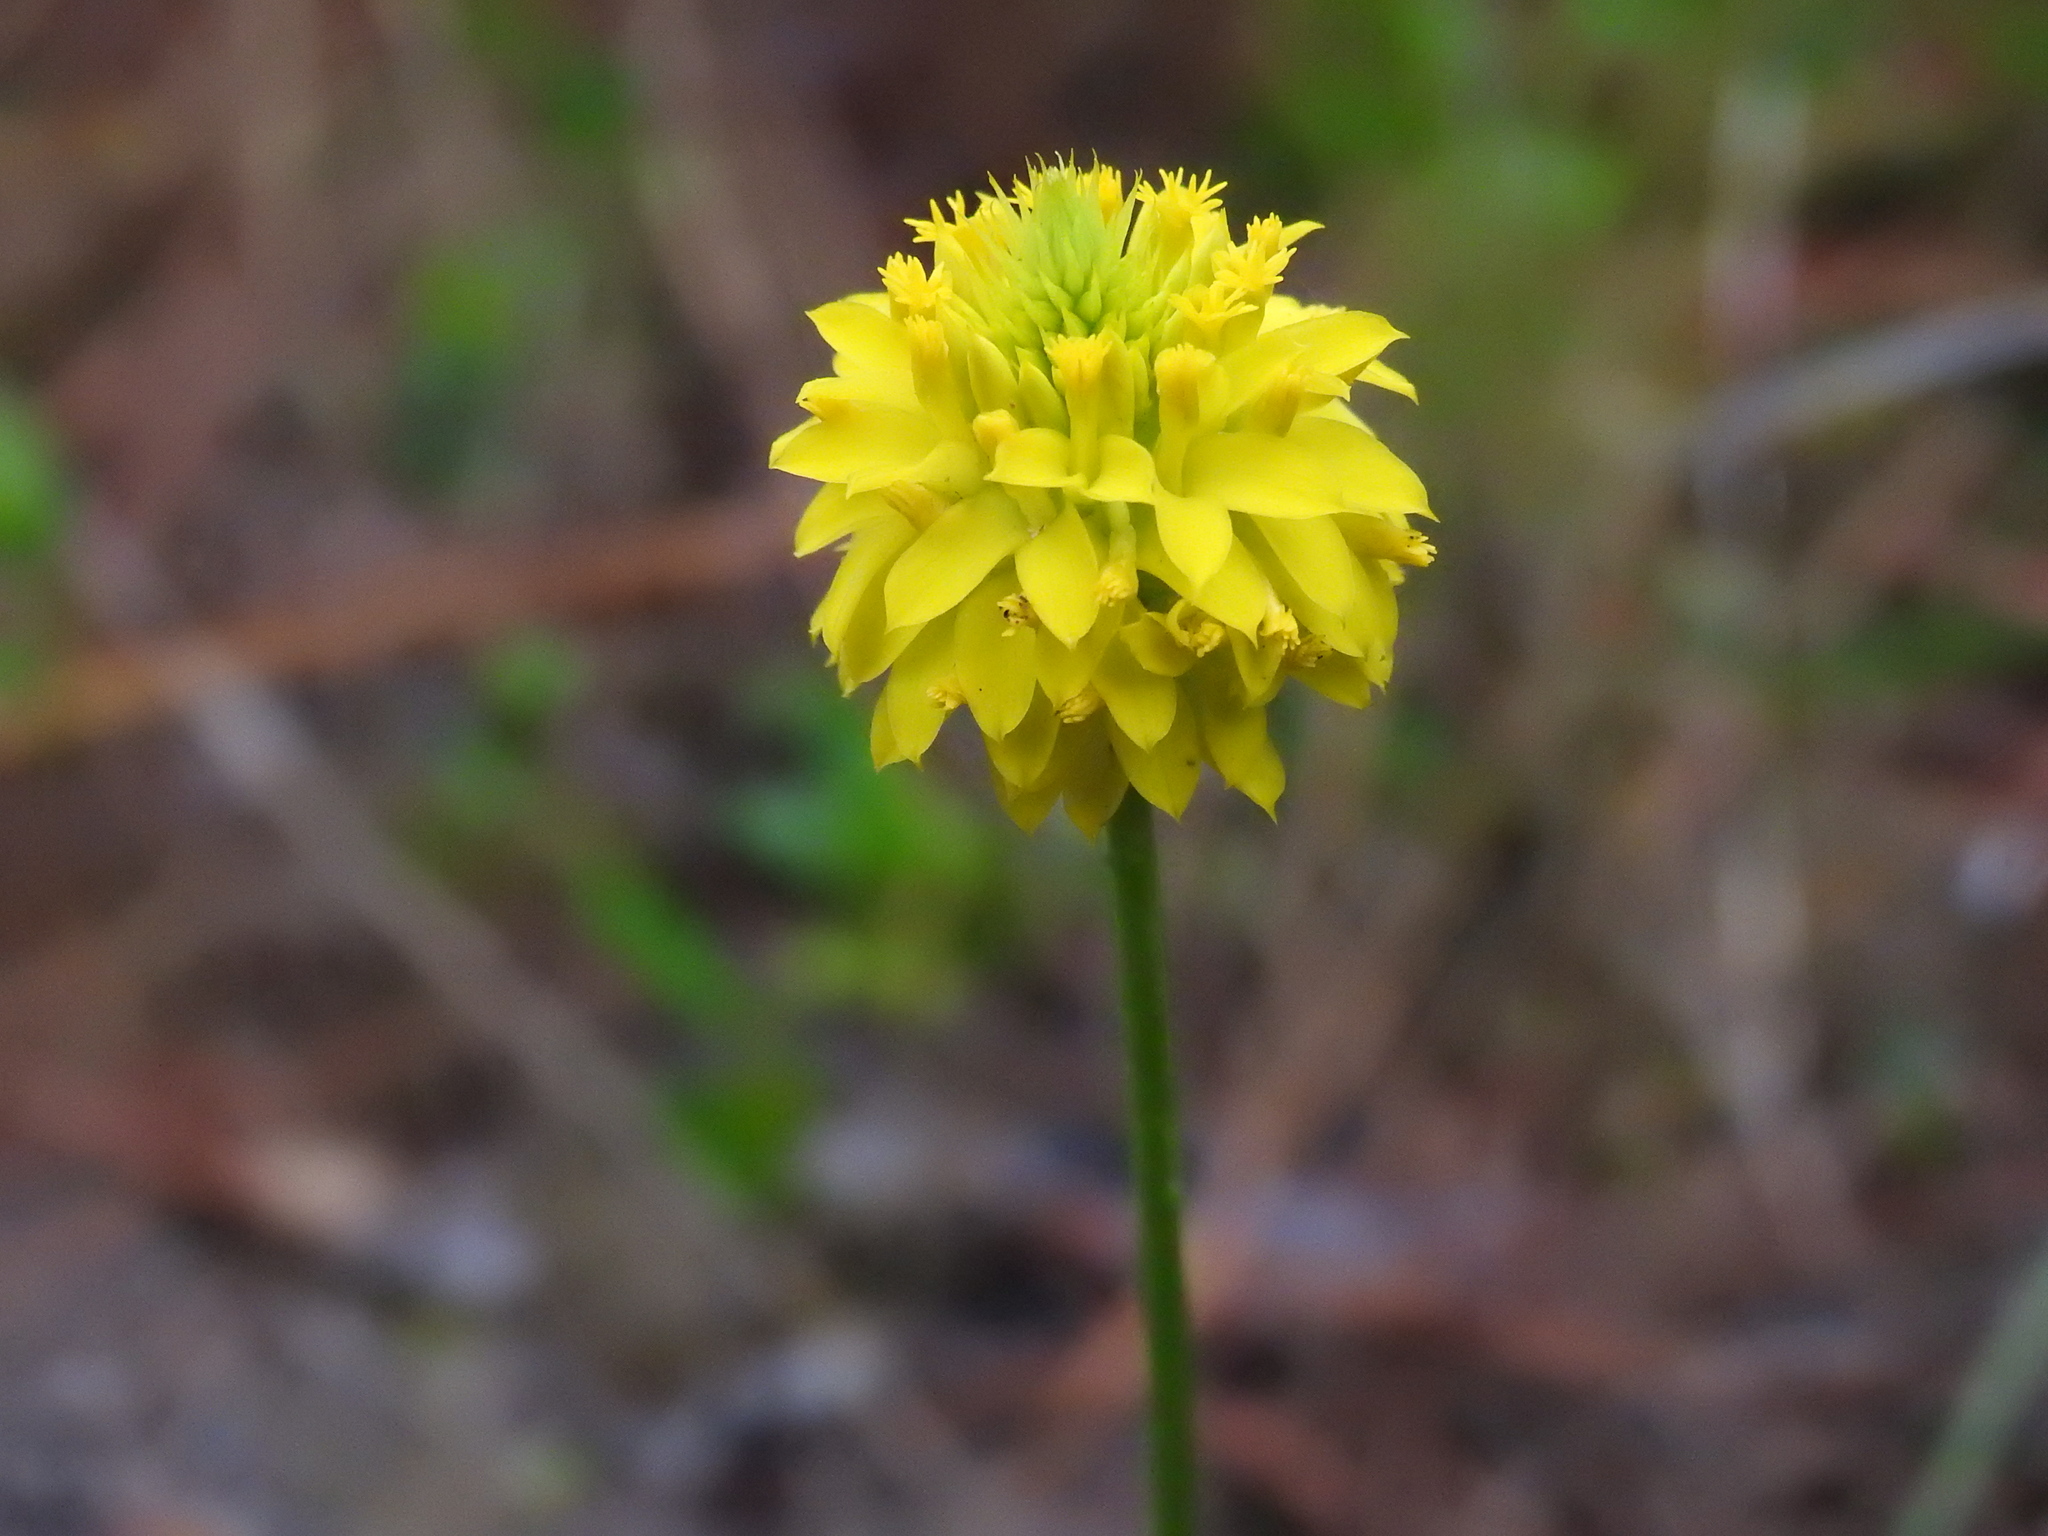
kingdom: Plantae
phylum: Tracheophyta
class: Magnoliopsida
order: Fabales
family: Polygalaceae
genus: Polygala
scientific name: Polygala rugelii
